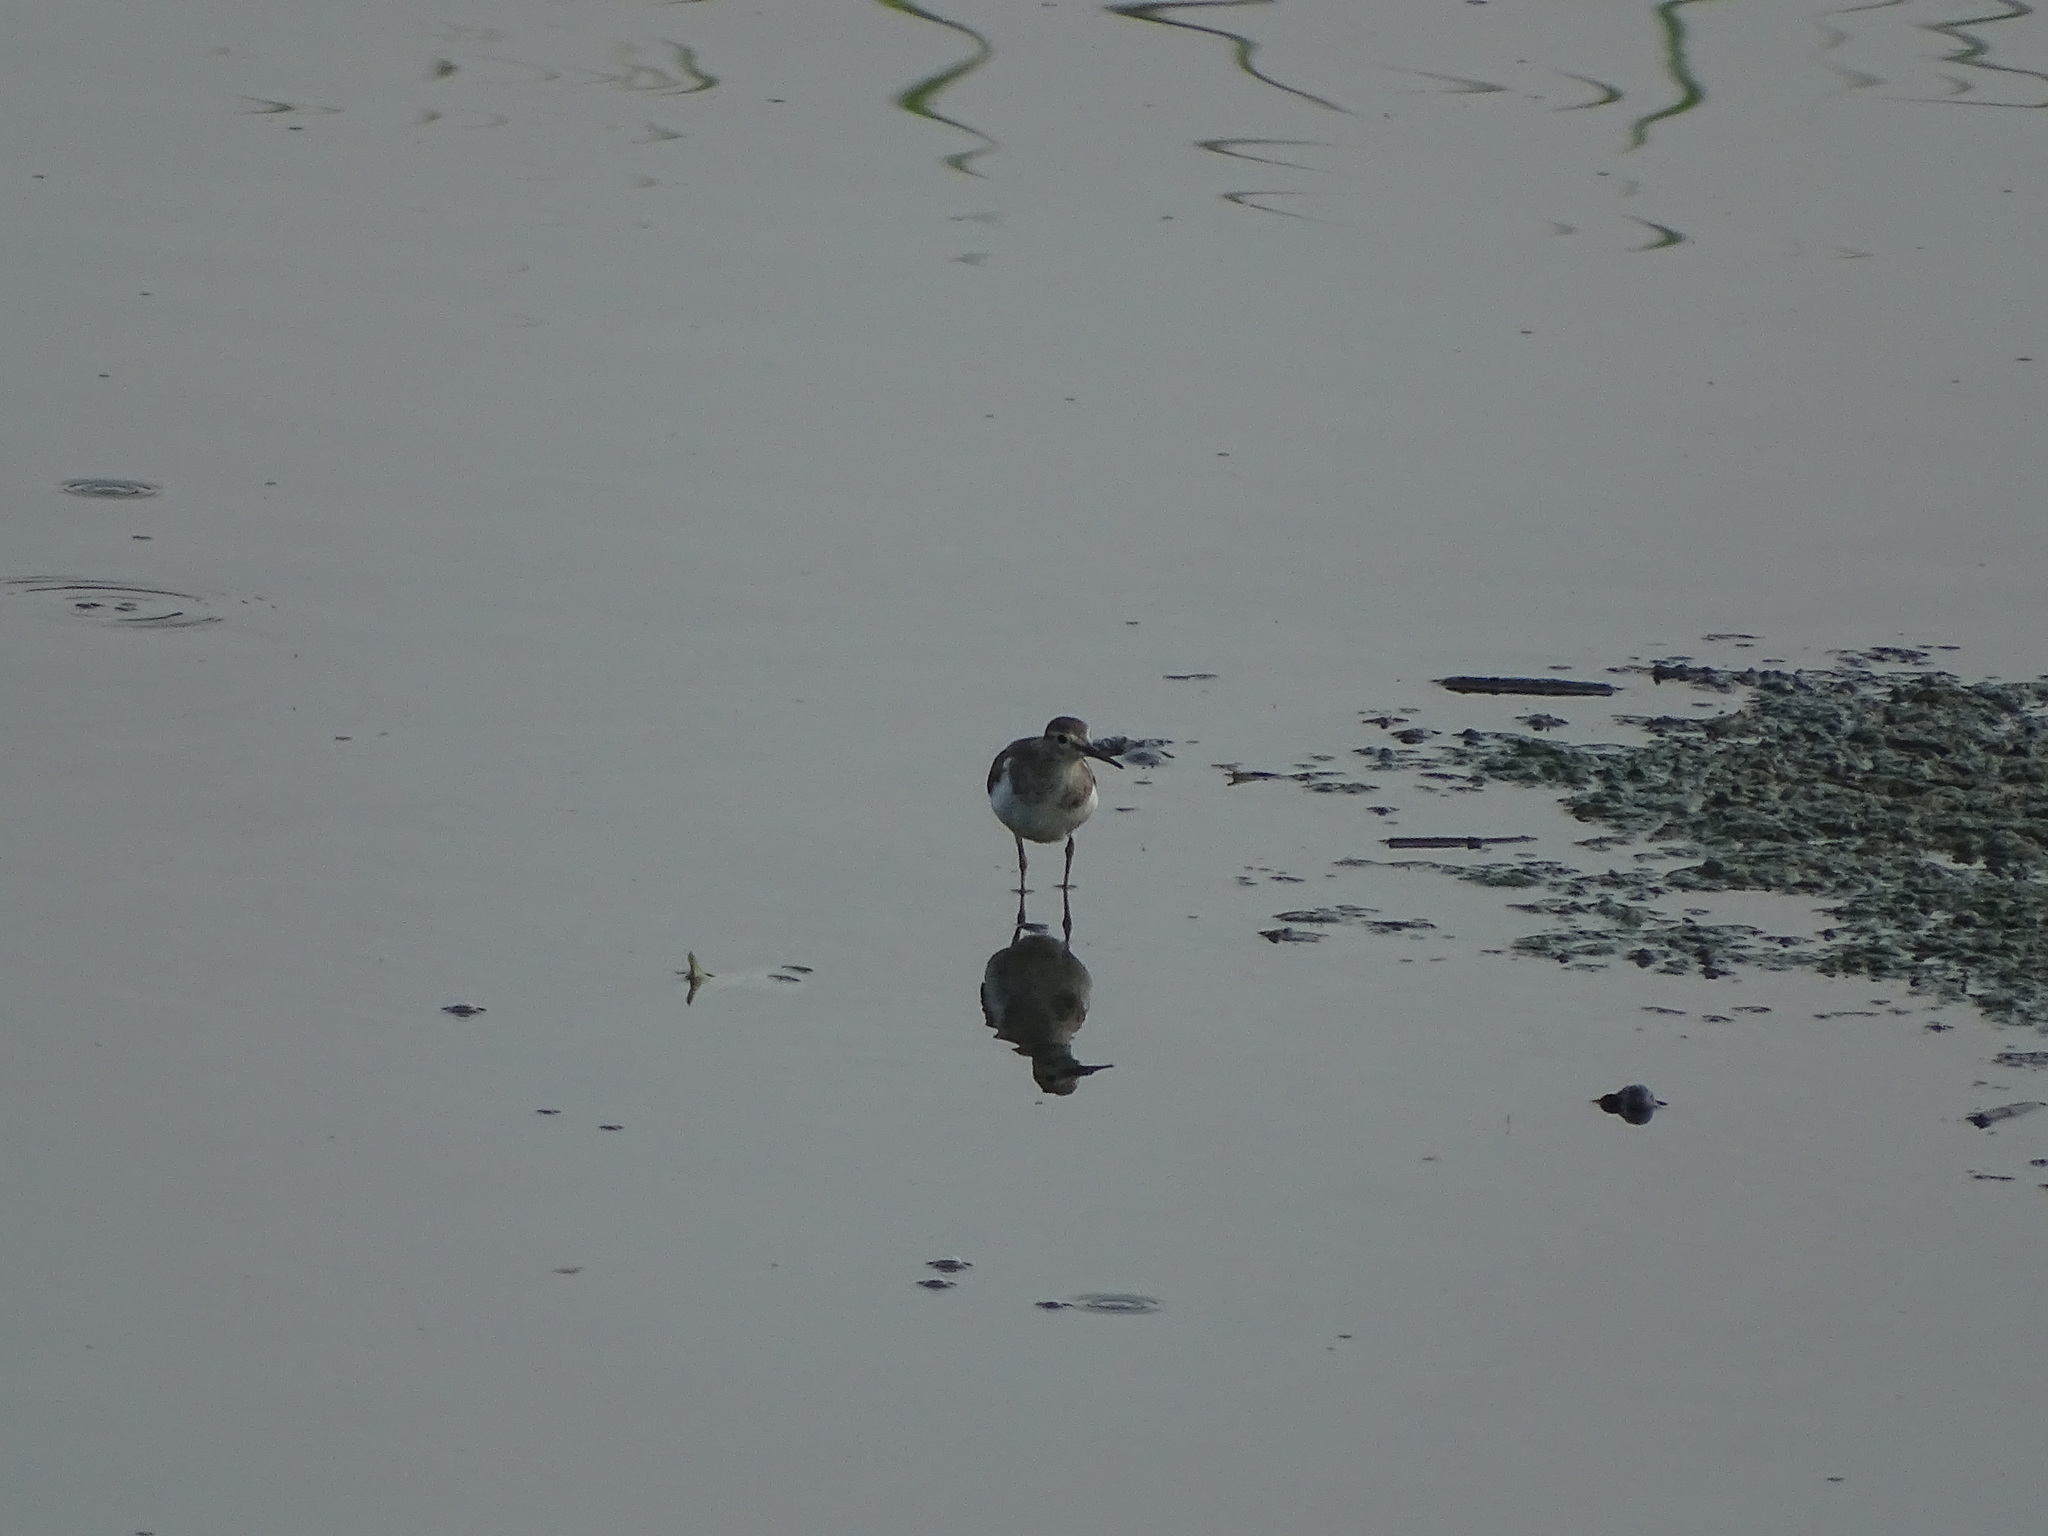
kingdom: Animalia
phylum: Chordata
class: Aves
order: Charadriiformes
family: Scolopacidae
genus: Actitis
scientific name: Actitis hypoleucos
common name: Common sandpiper
